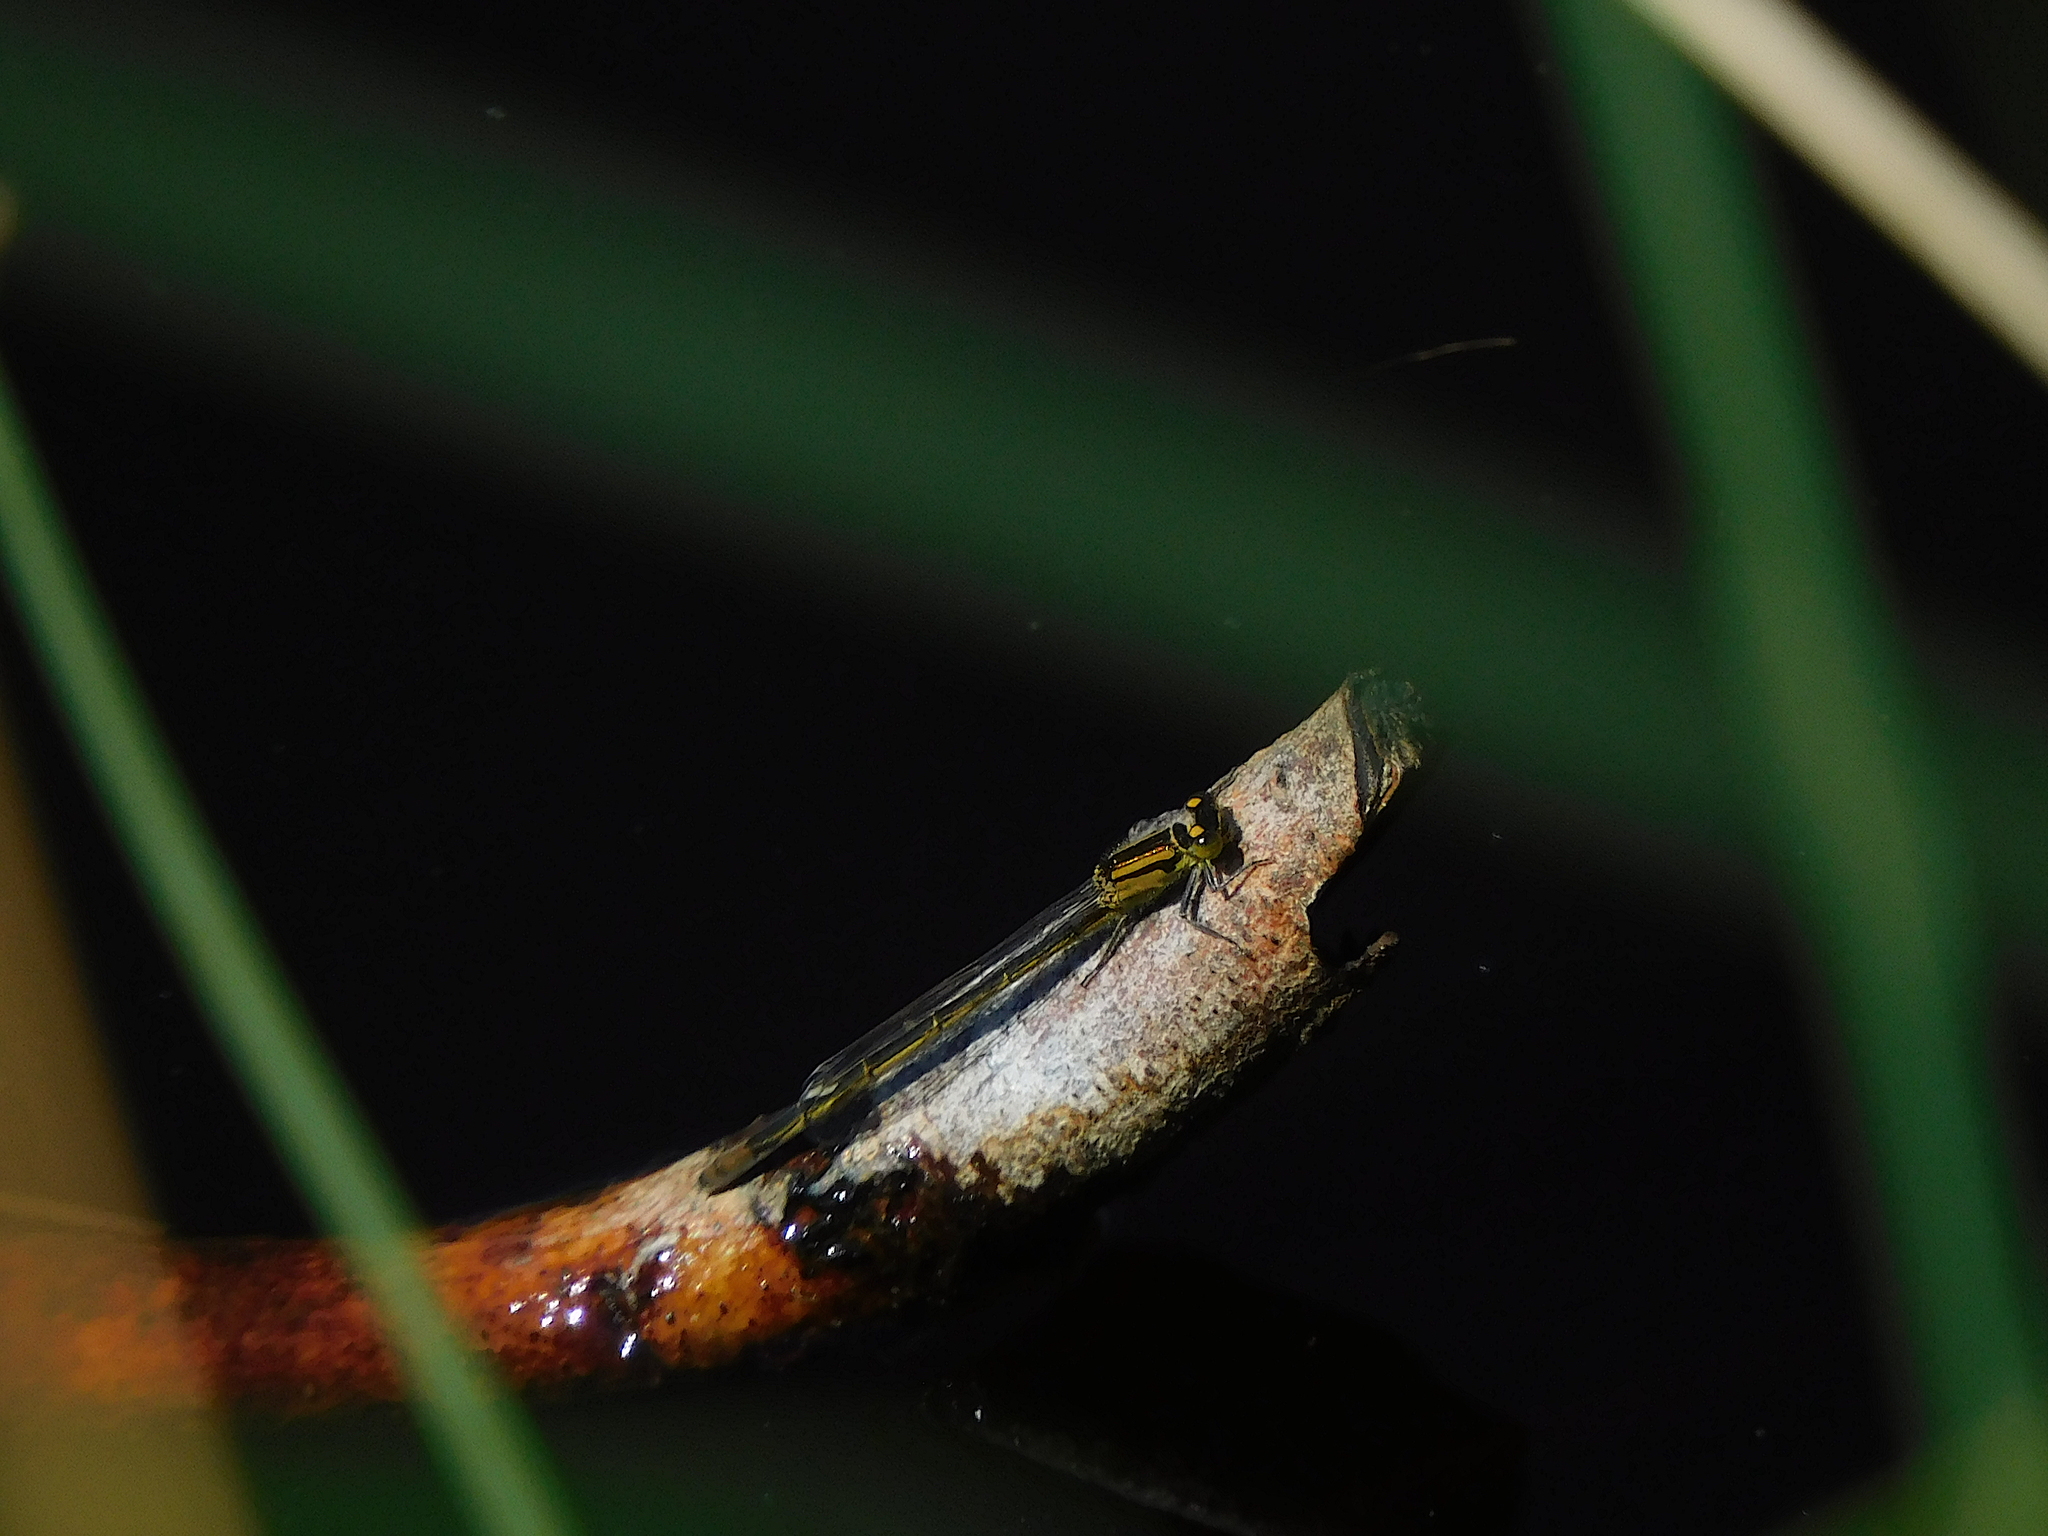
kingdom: Animalia
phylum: Arthropoda
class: Insecta
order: Odonata
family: Coenagrionidae
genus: Ischnura
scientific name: Ischnura heterosticta
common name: Common bluetail
